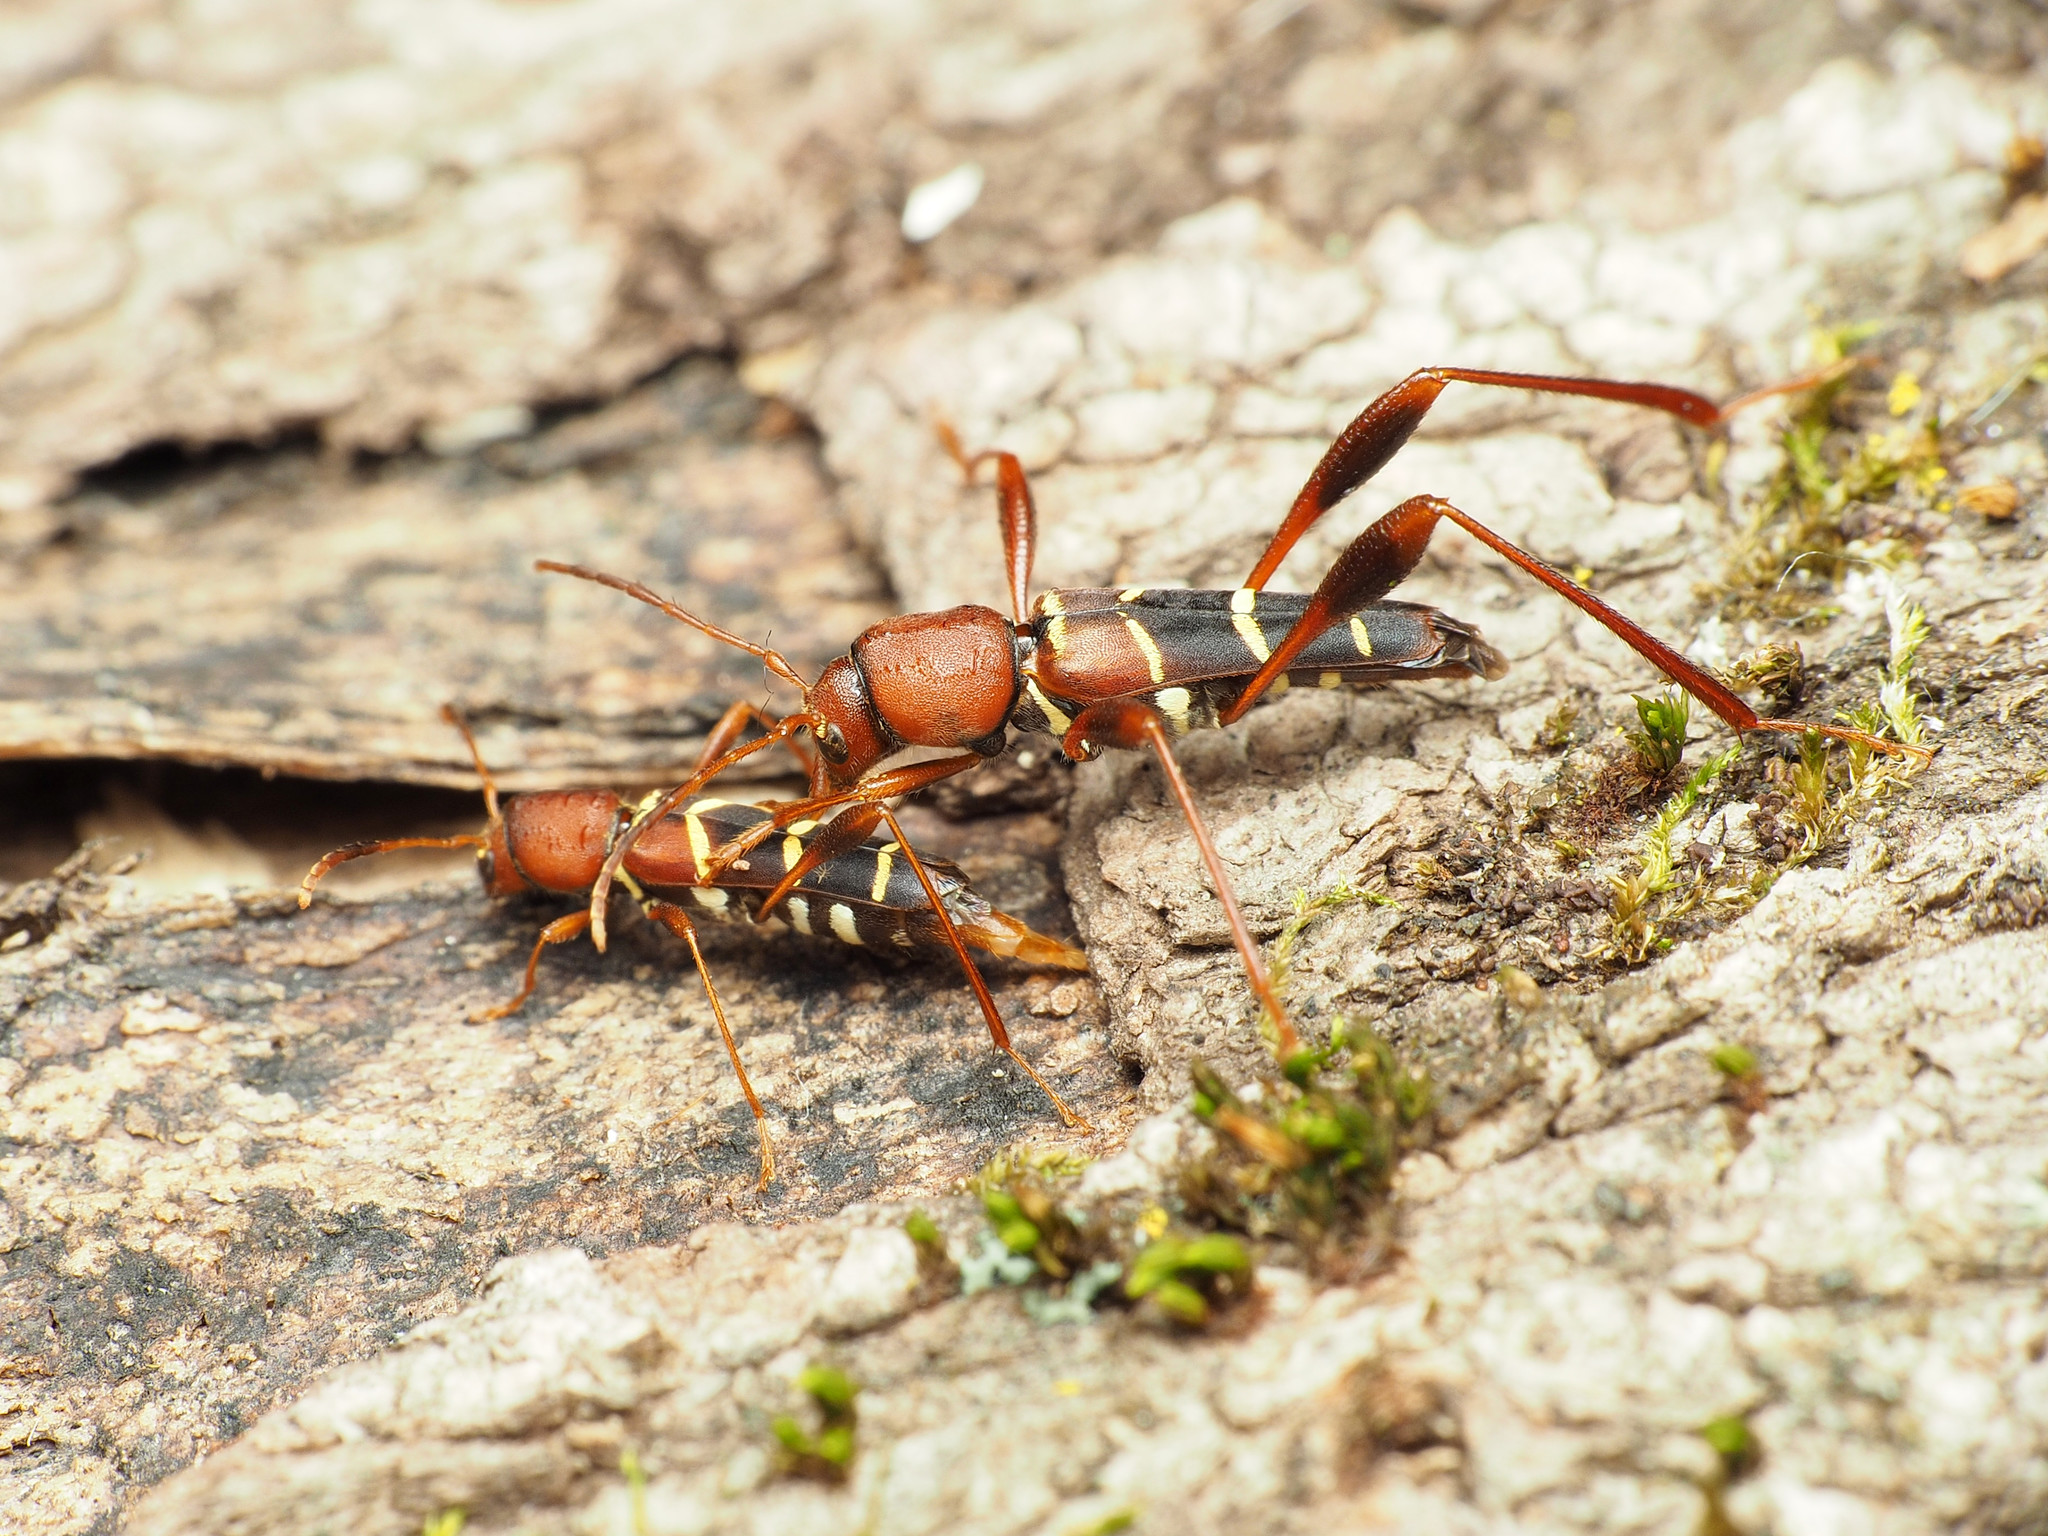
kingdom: Animalia
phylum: Arthropoda
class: Insecta
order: Coleoptera
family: Cerambycidae
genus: Neoclytus
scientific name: Neoclytus acuminatus
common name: Read-headed ash borer
